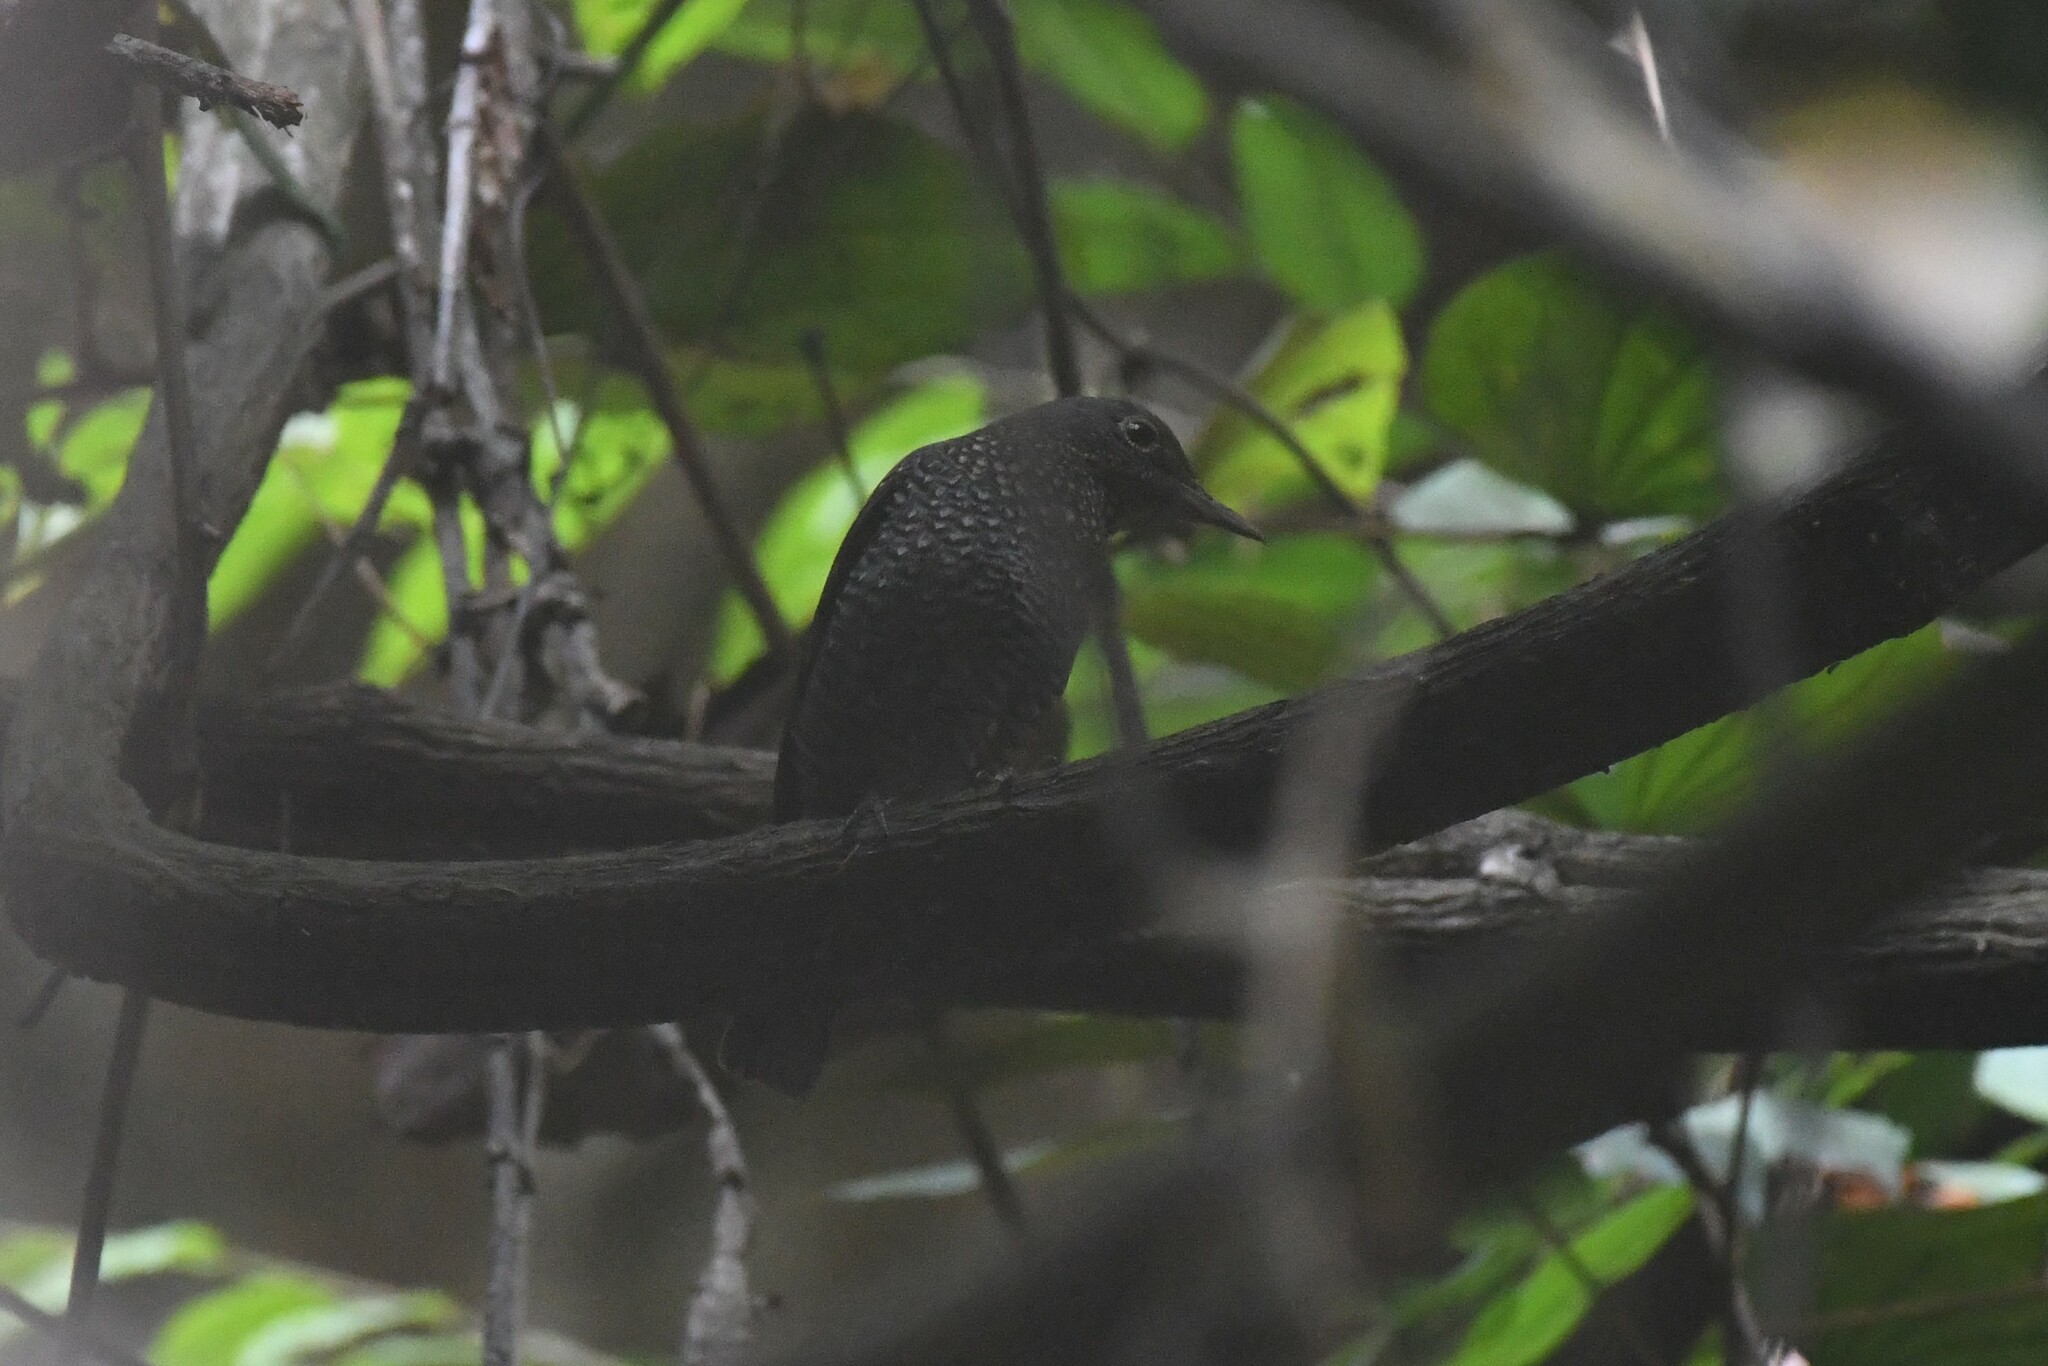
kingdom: Animalia
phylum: Chordata
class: Aves
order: Passeriformes
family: Muscicapidae
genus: Monticola
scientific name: Monticola solitarius
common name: Blue rock thrush
